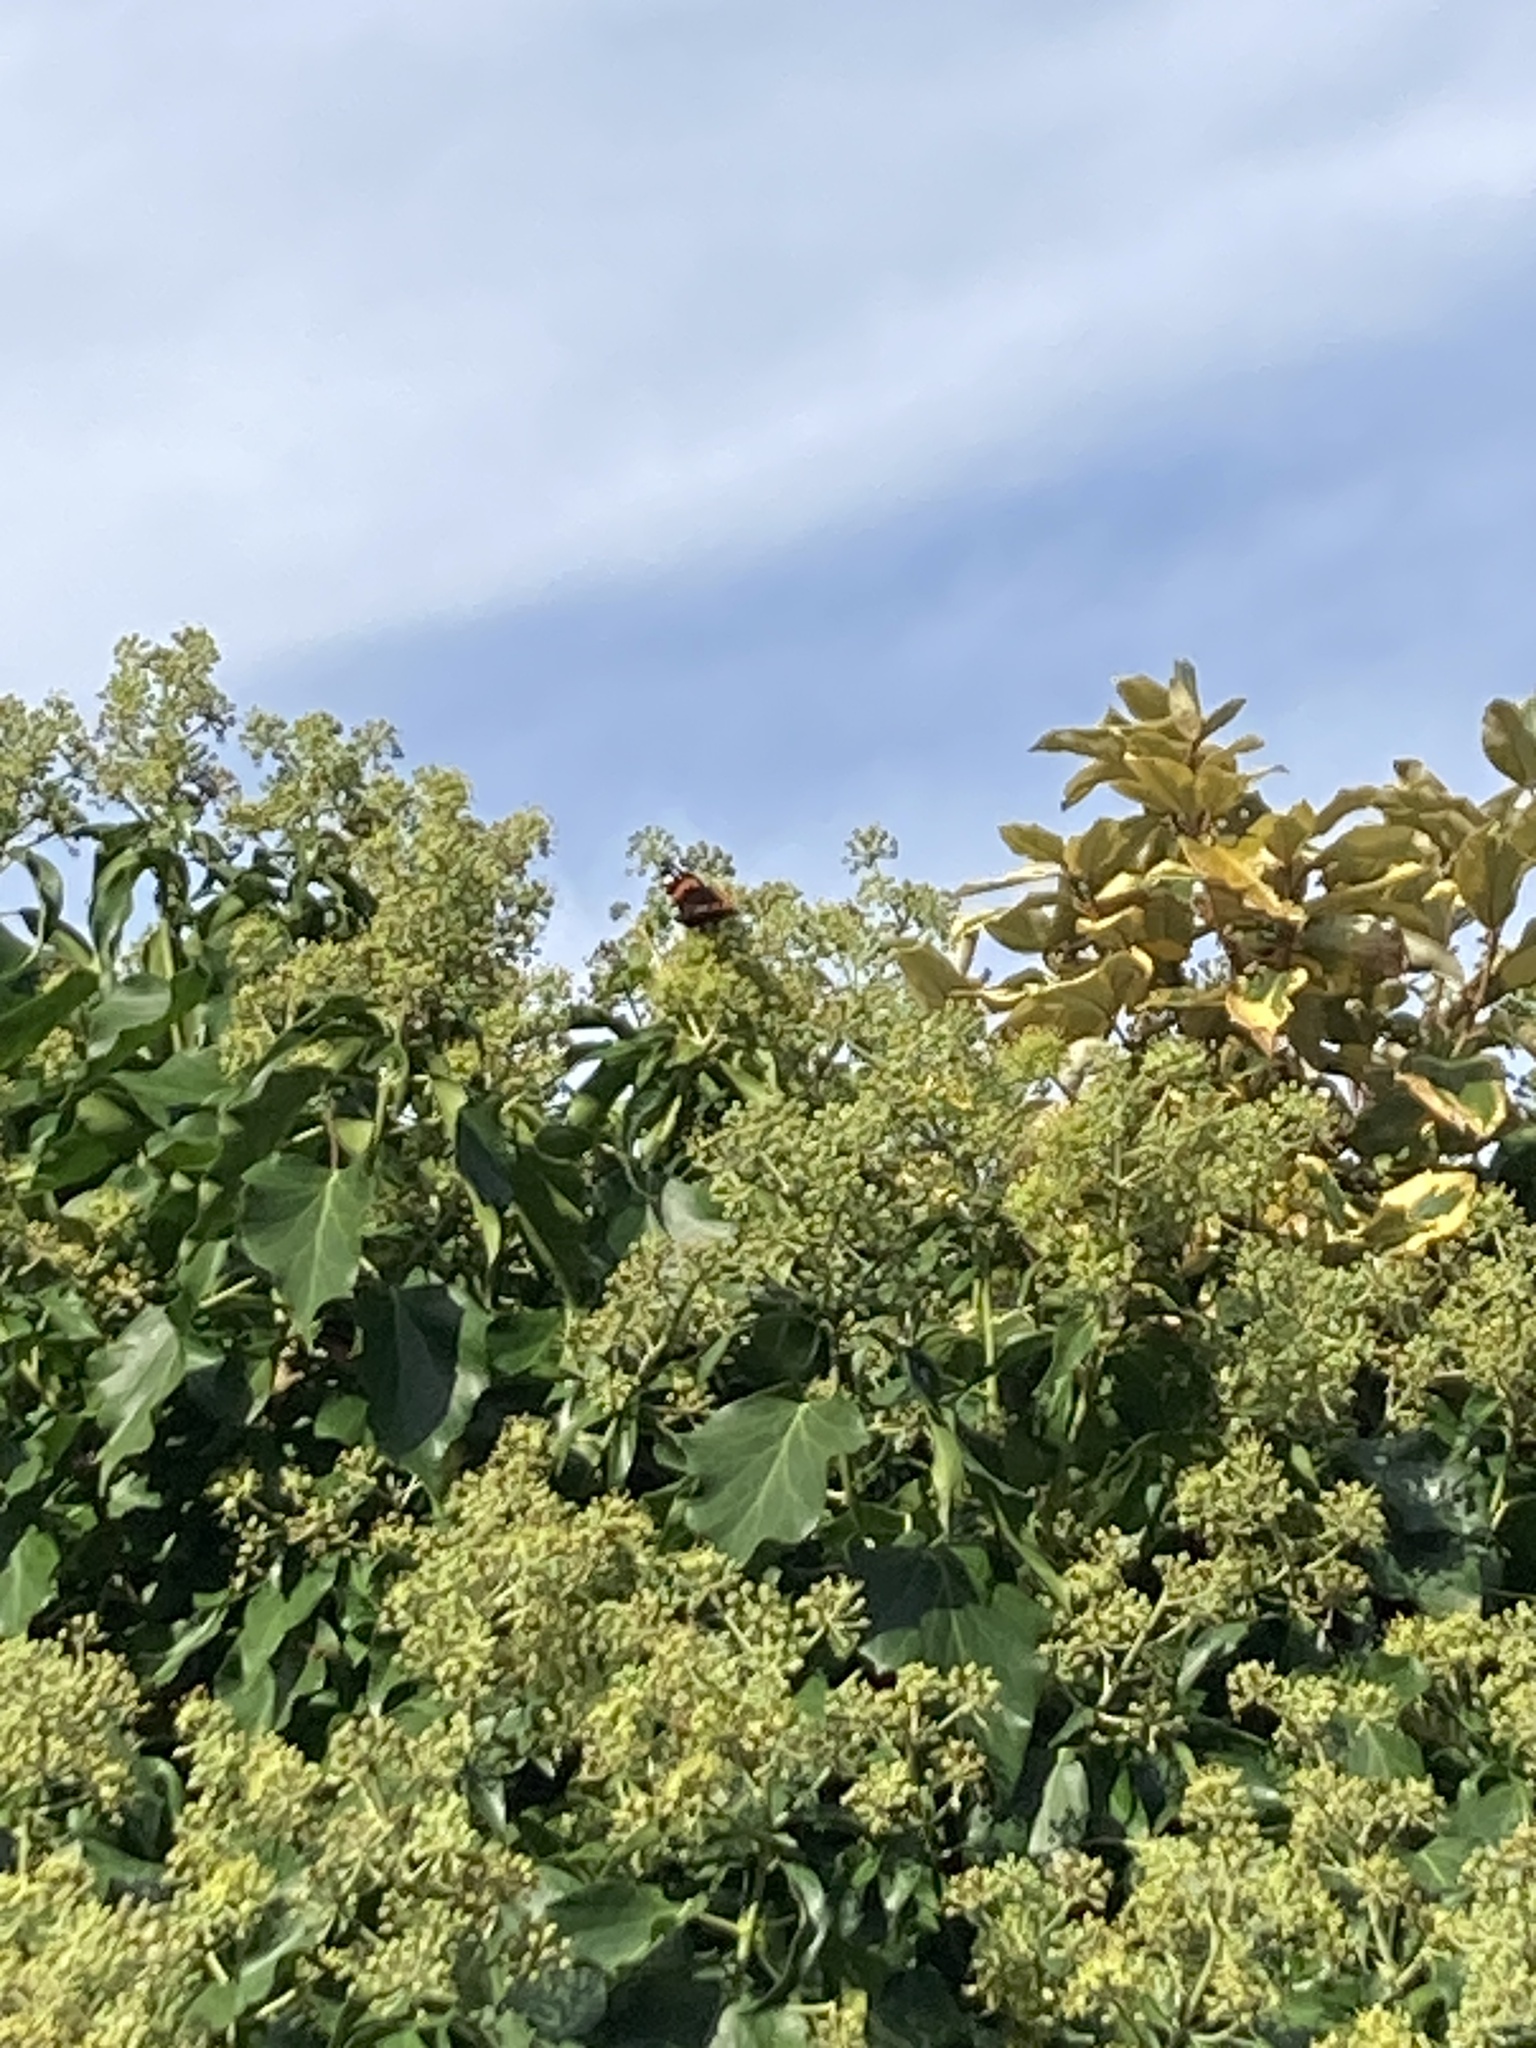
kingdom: Animalia
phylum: Arthropoda
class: Insecta
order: Lepidoptera
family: Nymphalidae
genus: Vanessa
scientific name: Vanessa atalanta
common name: Red admiral
